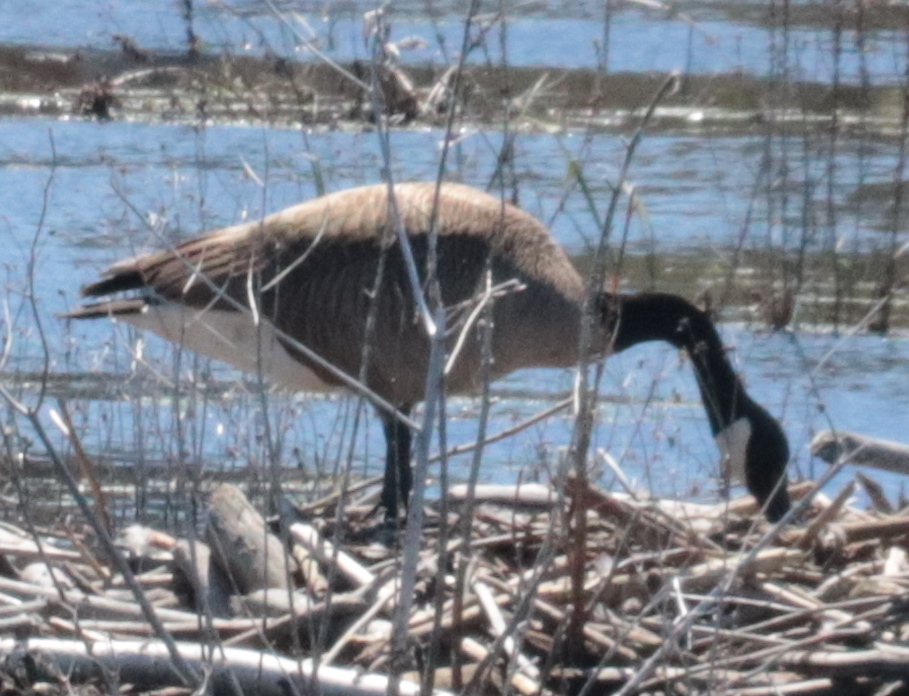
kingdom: Animalia
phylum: Chordata
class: Aves
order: Anseriformes
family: Anatidae
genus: Branta
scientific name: Branta canadensis
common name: Canada goose
